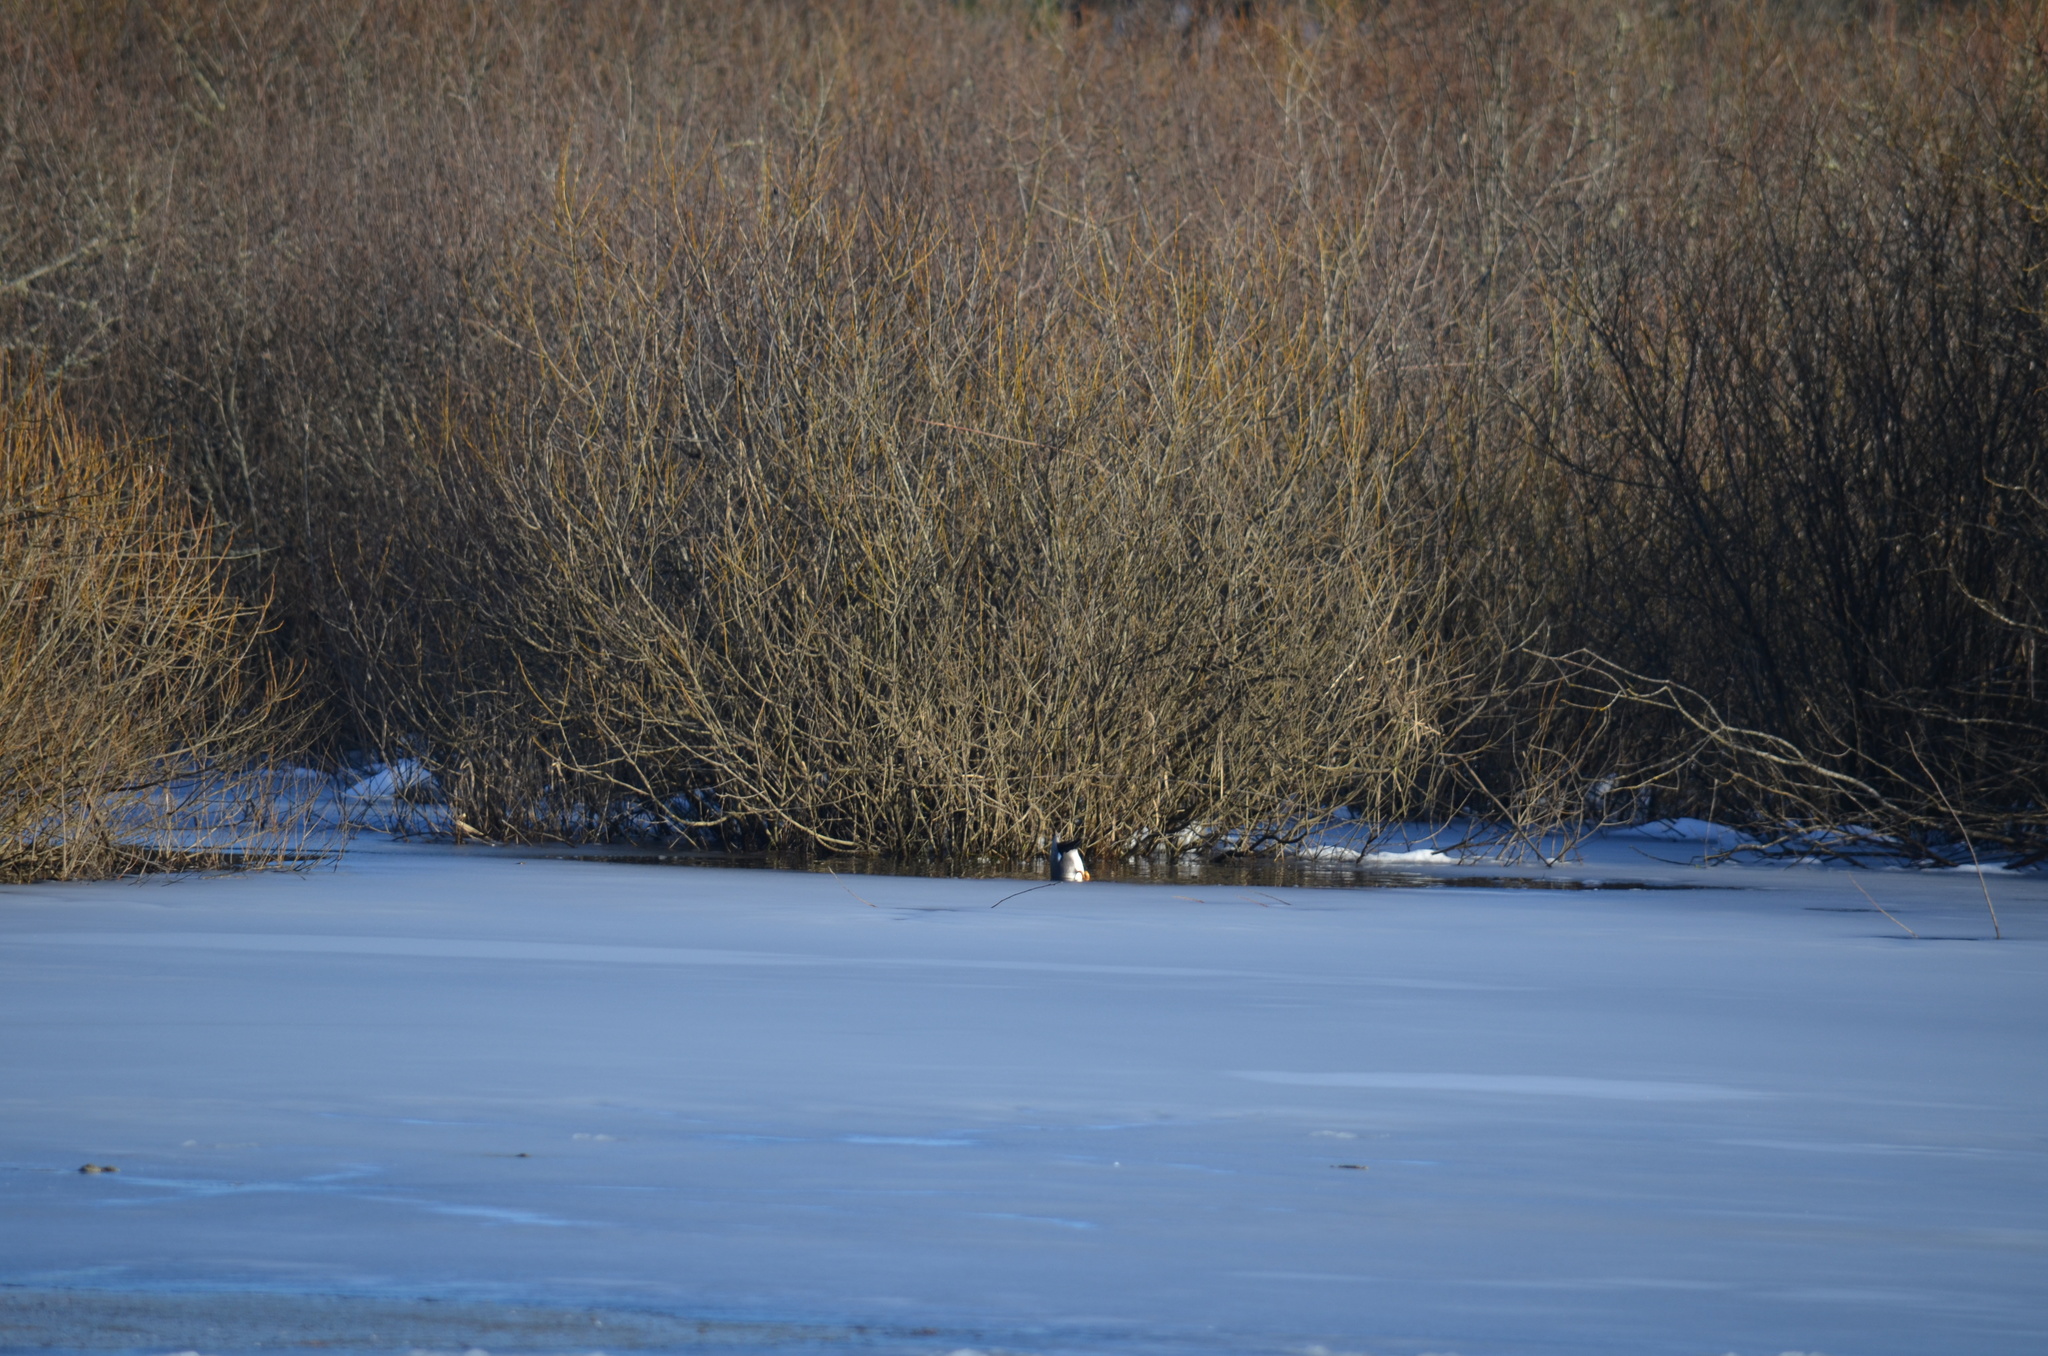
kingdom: Animalia
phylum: Chordata
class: Aves
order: Anseriformes
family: Anatidae
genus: Mareca
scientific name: Mareca strepera
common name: Gadwall
